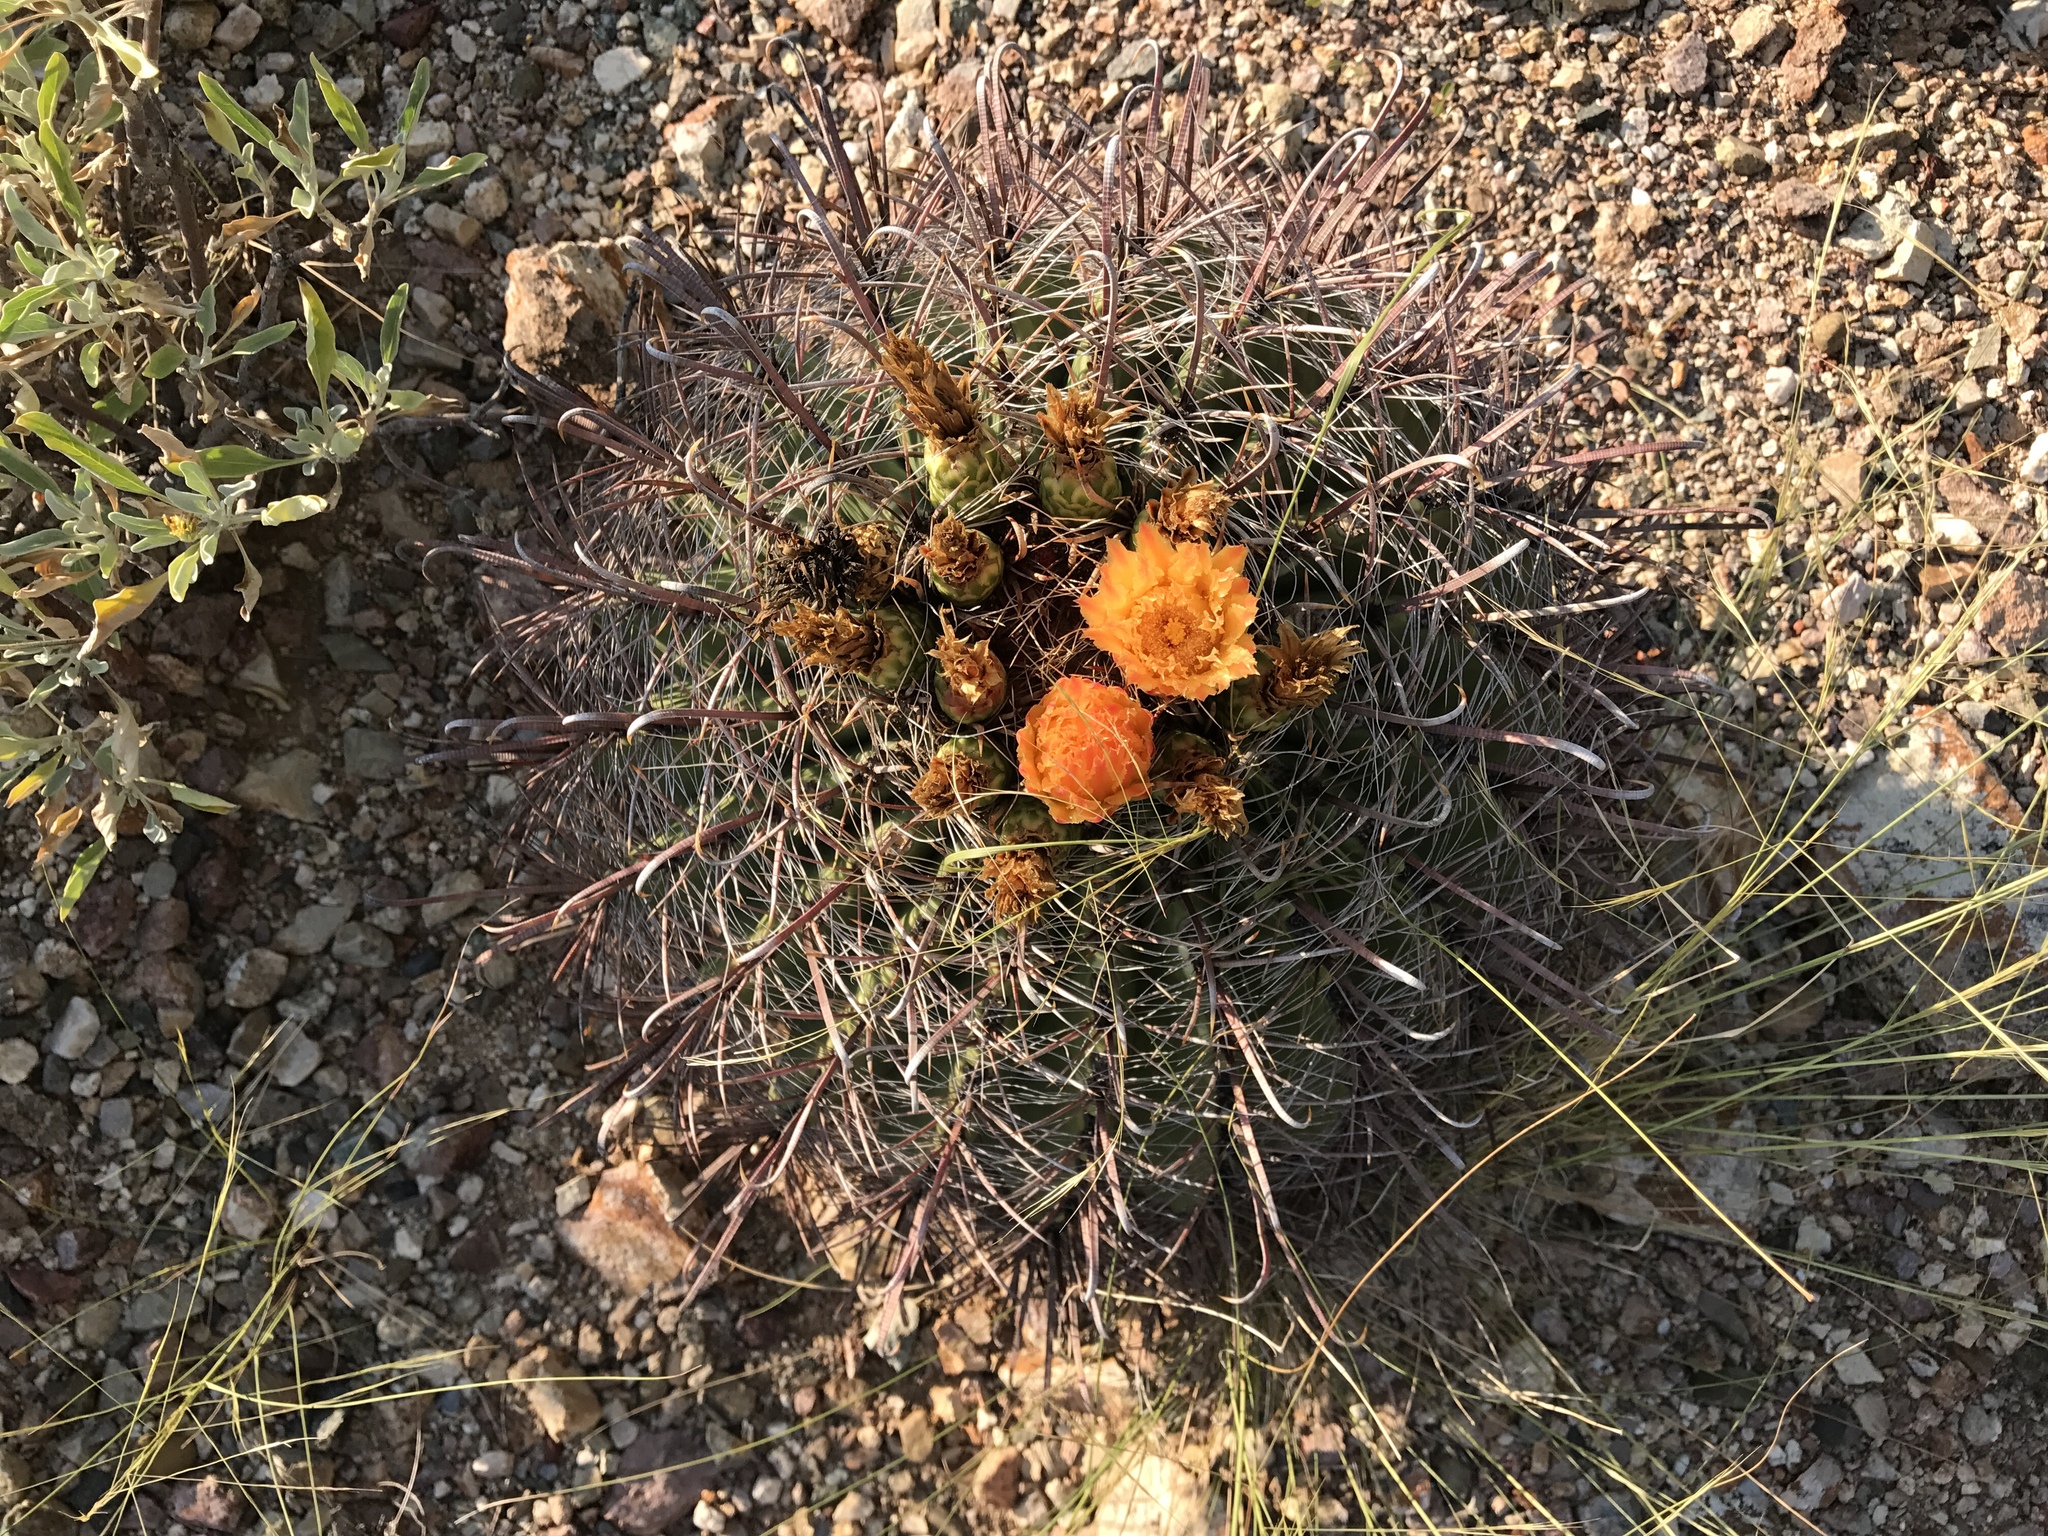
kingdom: Plantae
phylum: Tracheophyta
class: Magnoliopsida
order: Caryophyllales
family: Cactaceae
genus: Ferocactus
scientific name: Ferocactus wislizeni
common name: Candy barrel cactus
